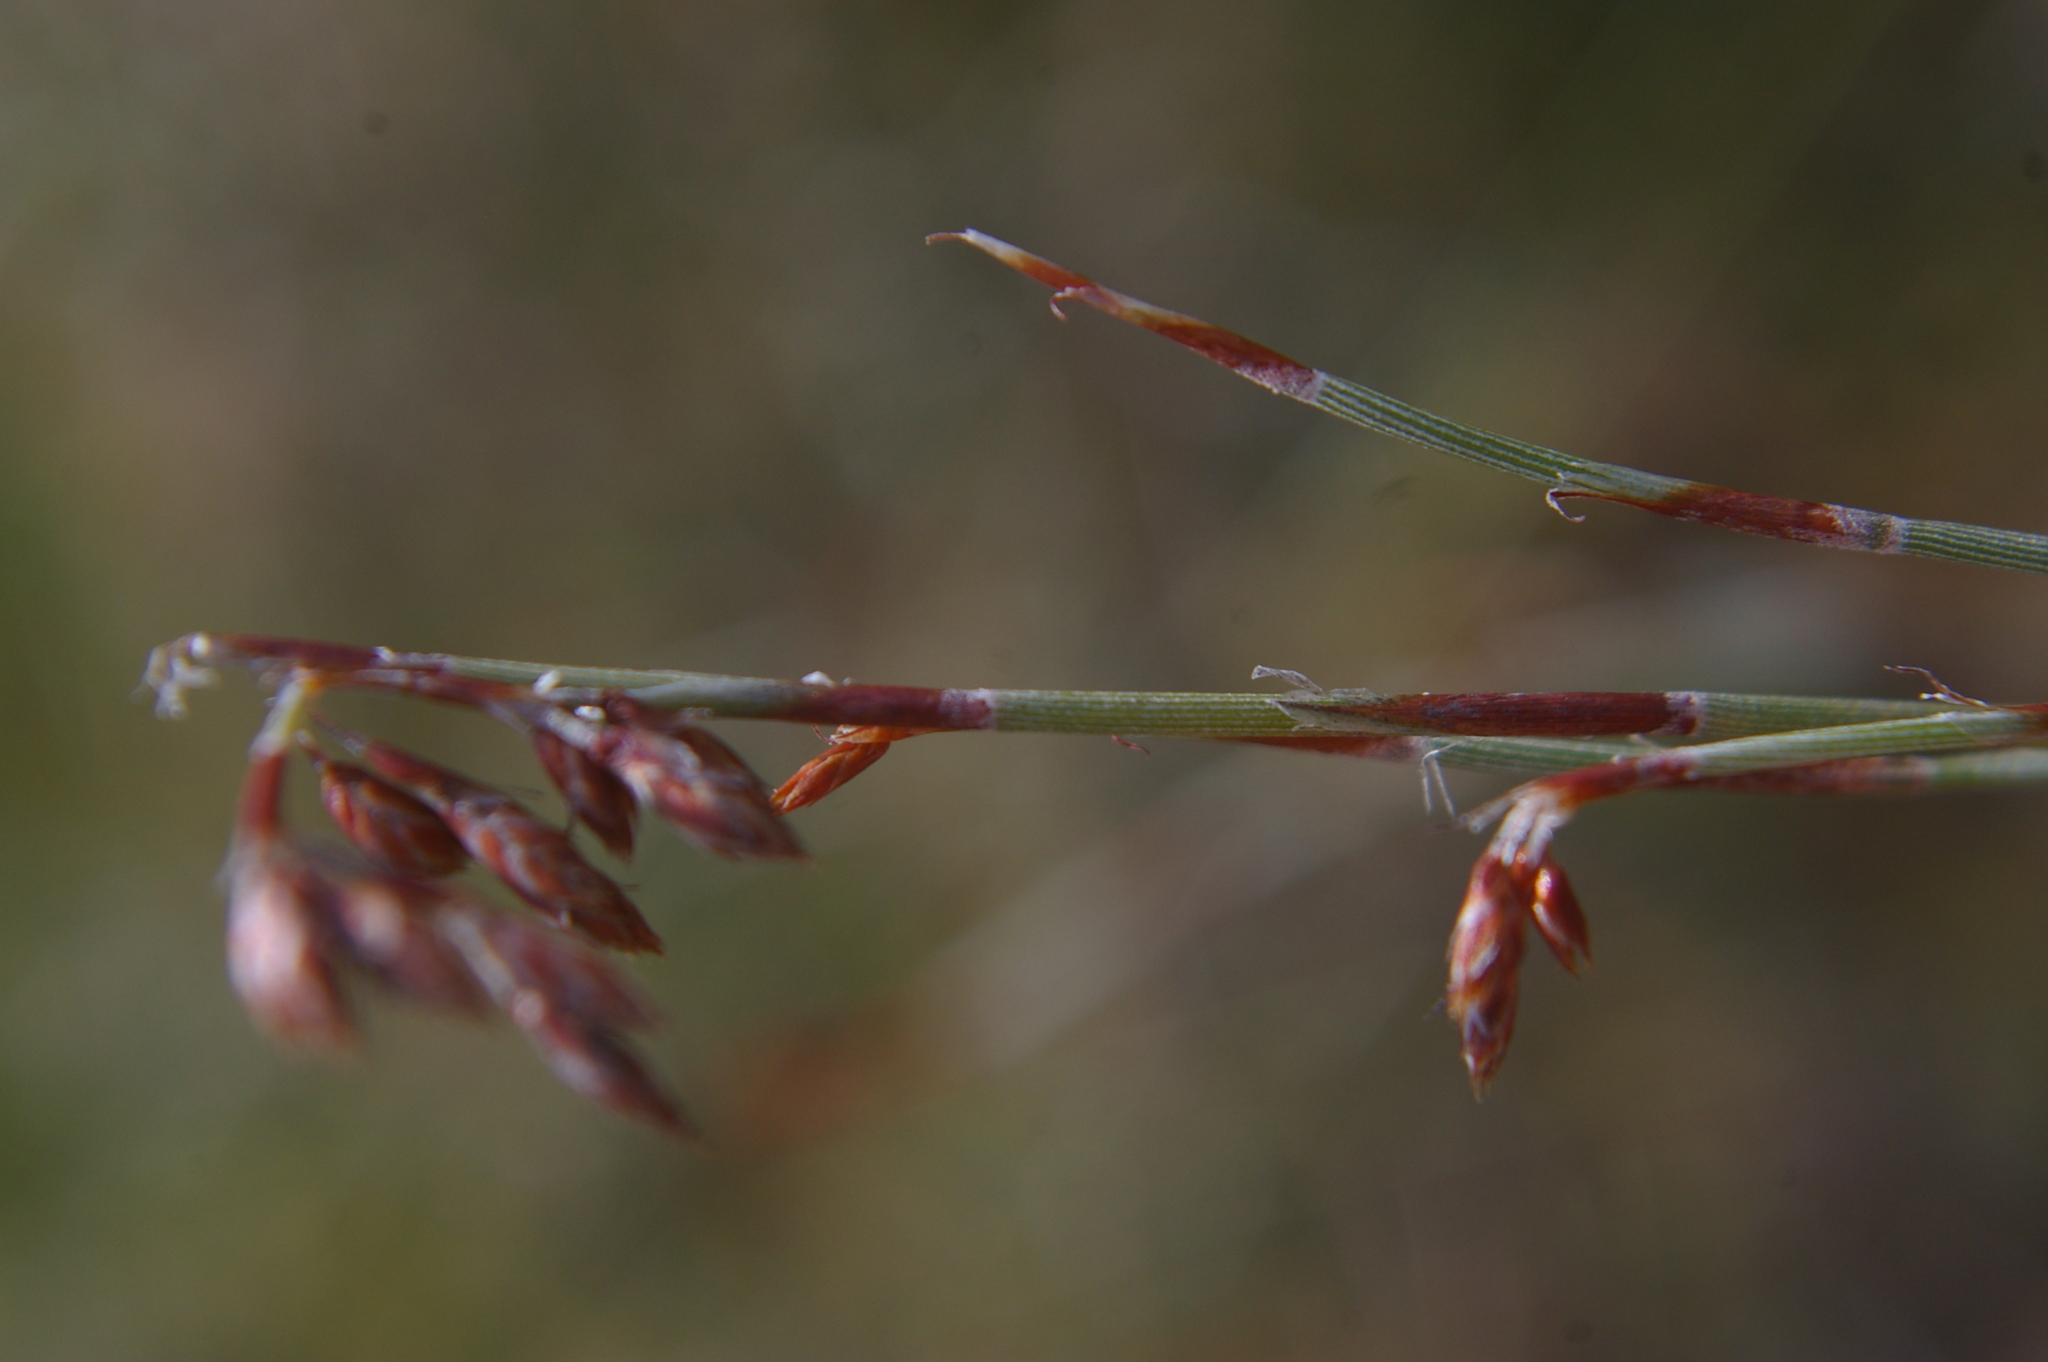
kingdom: Plantae
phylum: Tracheophyta
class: Liliopsida
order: Poales
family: Restionaceae
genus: Hypolaena
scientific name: Hypolaena fastigiata
